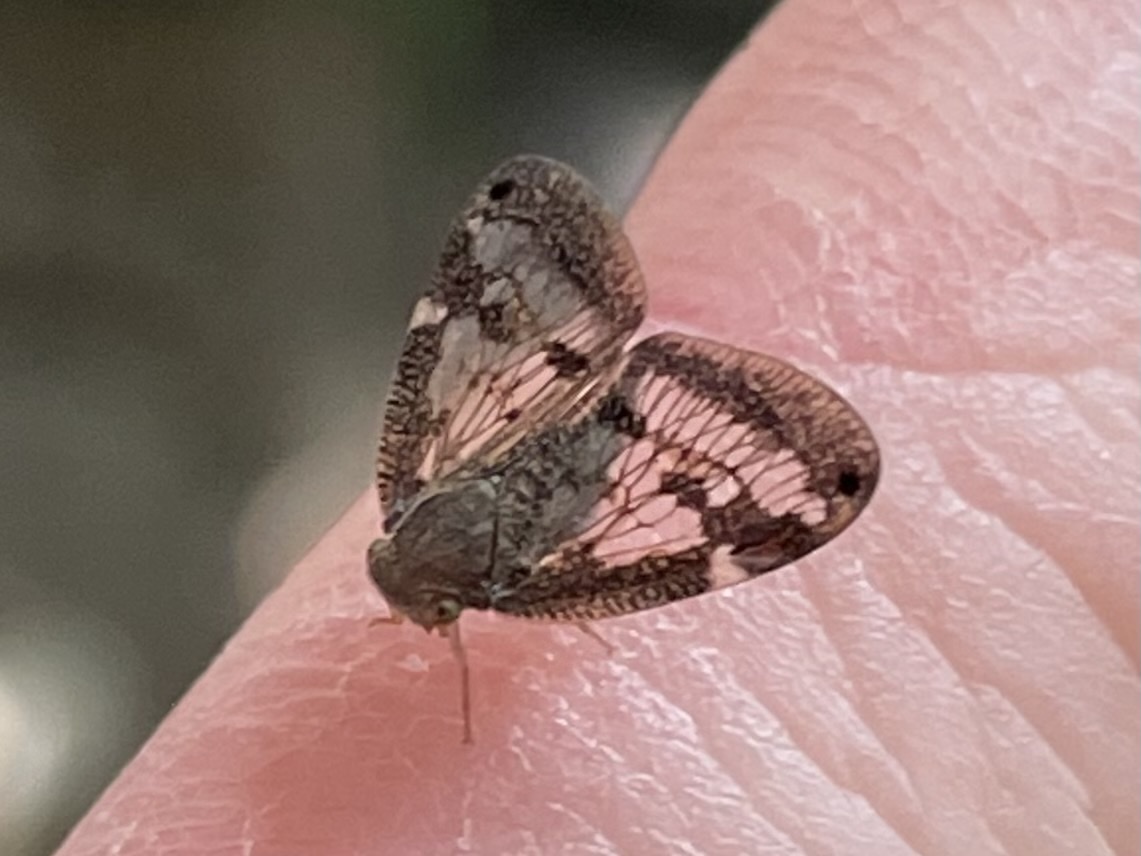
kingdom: Animalia
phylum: Arthropoda
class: Insecta
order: Hemiptera
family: Ricaniidae
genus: Scolypopa
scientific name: Scolypopa australis
